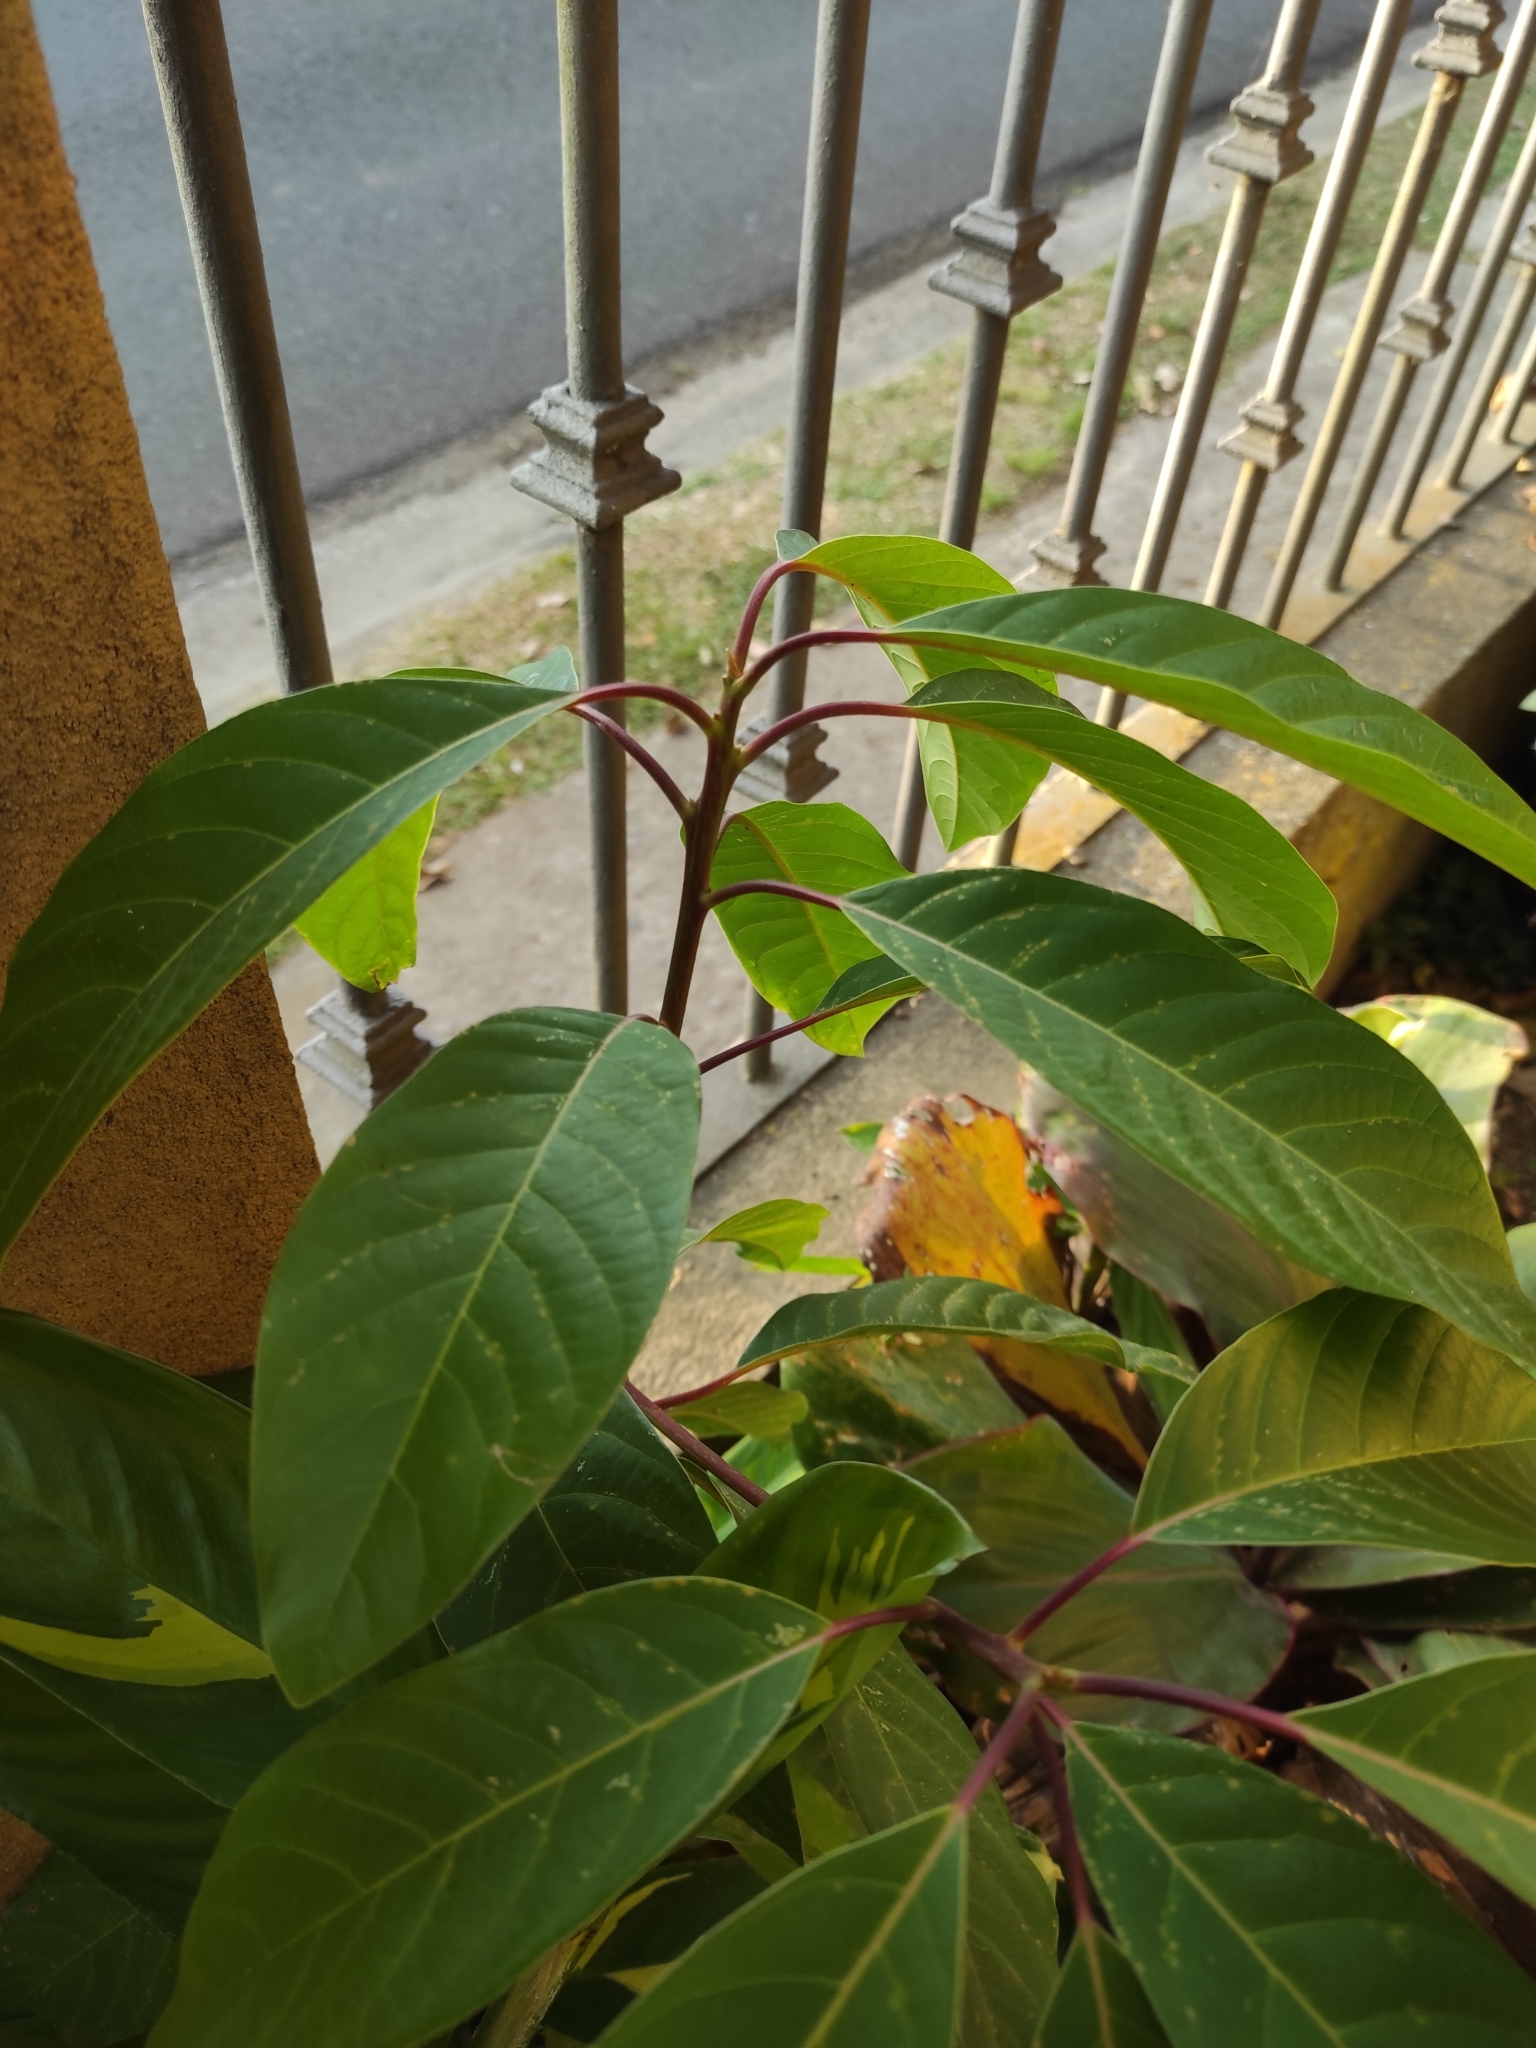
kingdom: Plantae
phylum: Tracheophyta
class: Magnoliopsida
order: Laurales
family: Lauraceae
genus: Persea
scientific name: Persea caerulea
